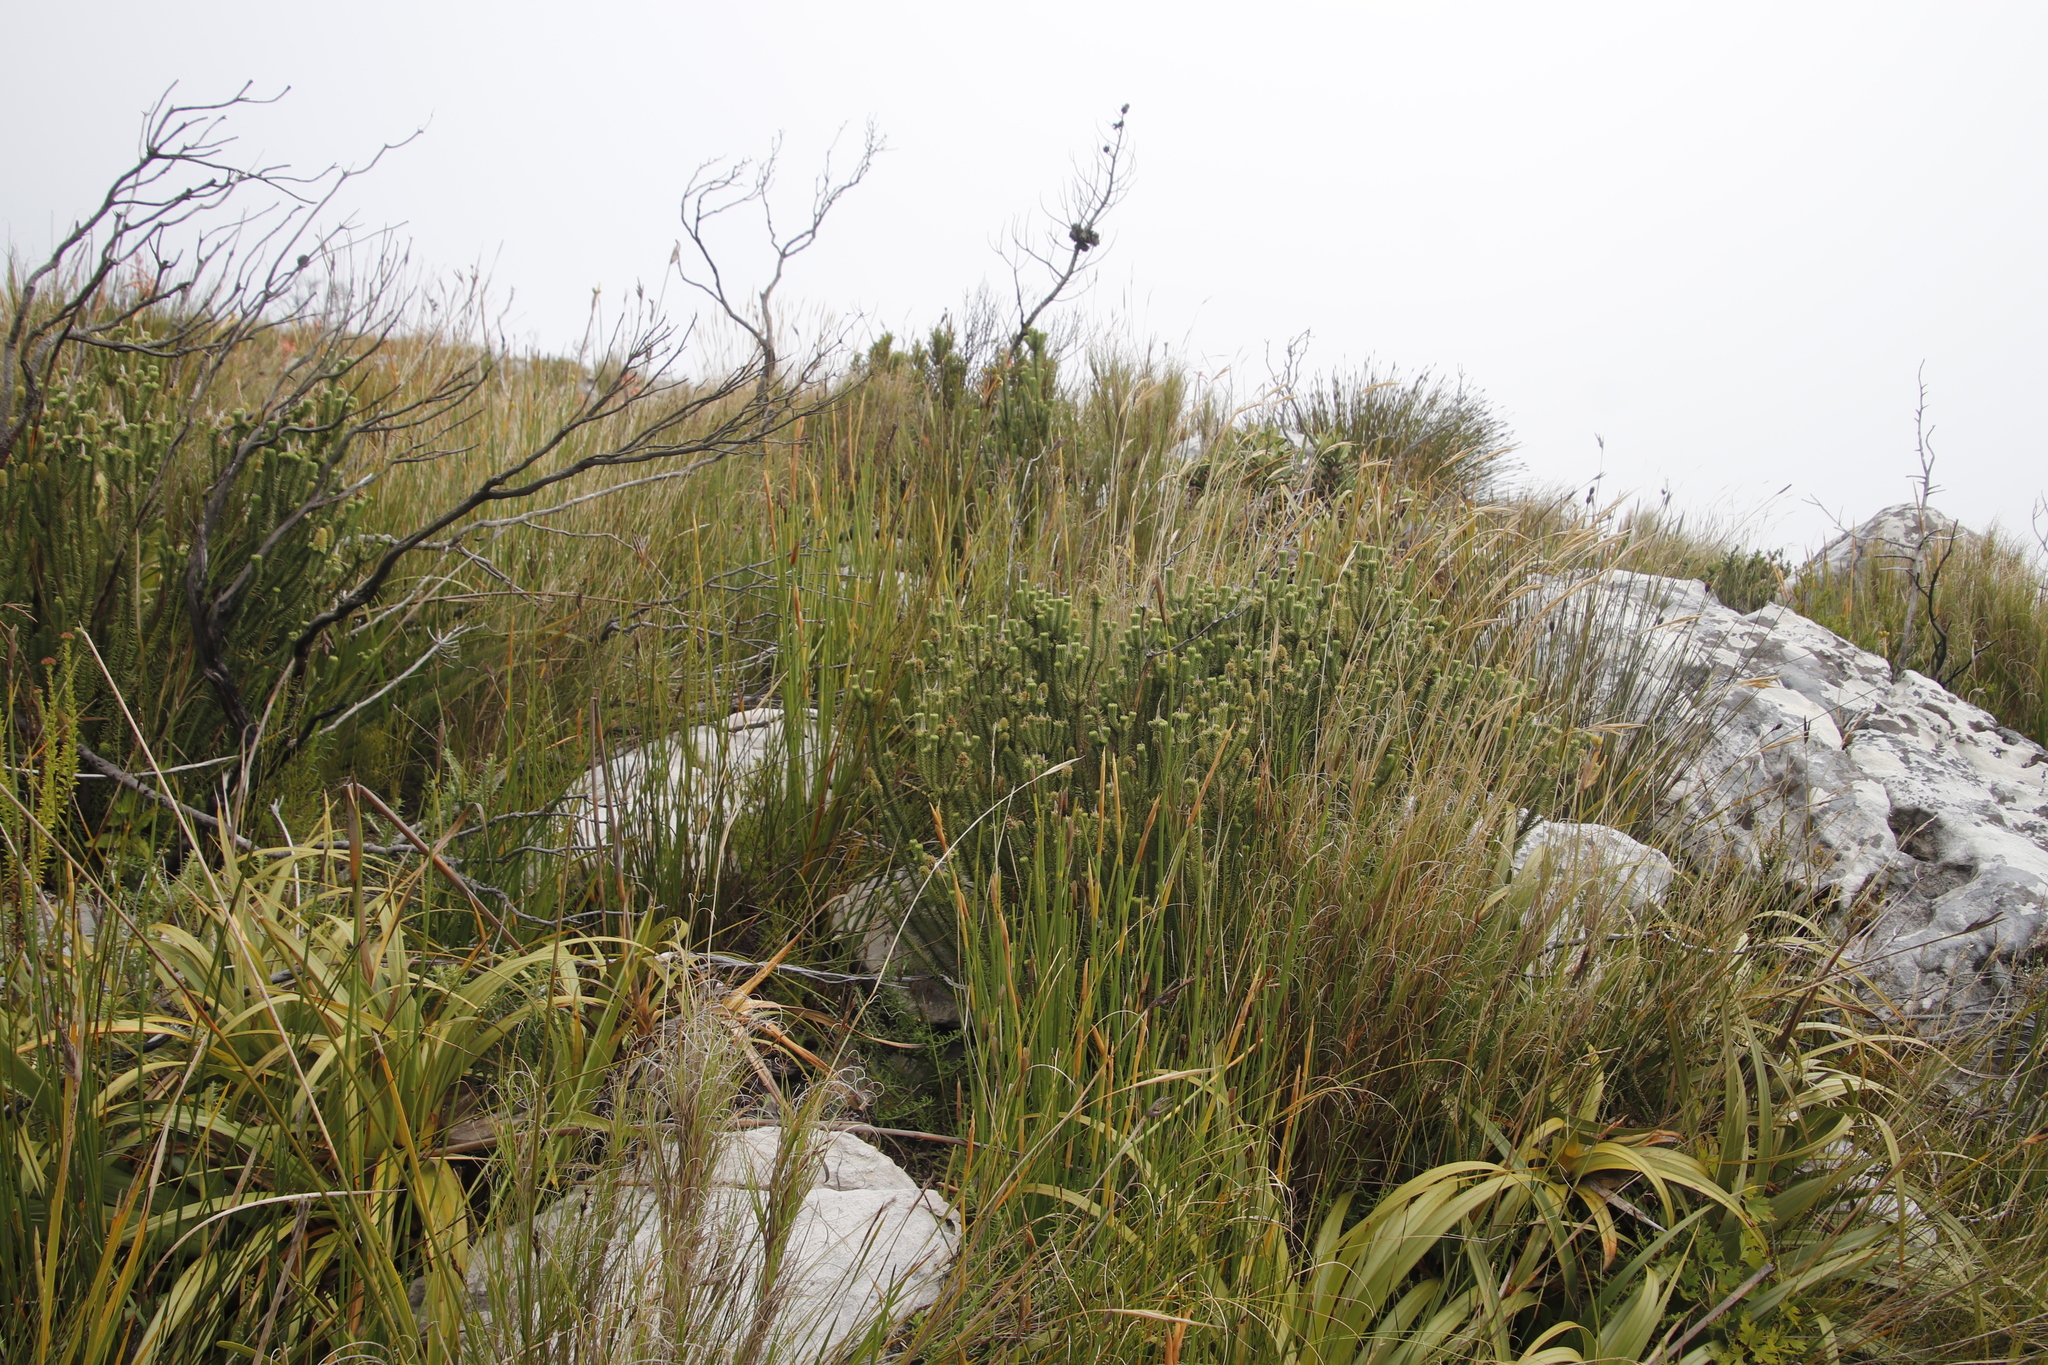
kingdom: Plantae
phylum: Tracheophyta
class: Magnoliopsida
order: Lamiales
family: Stilbaceae
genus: Stilbe
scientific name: Stilbe vestita
